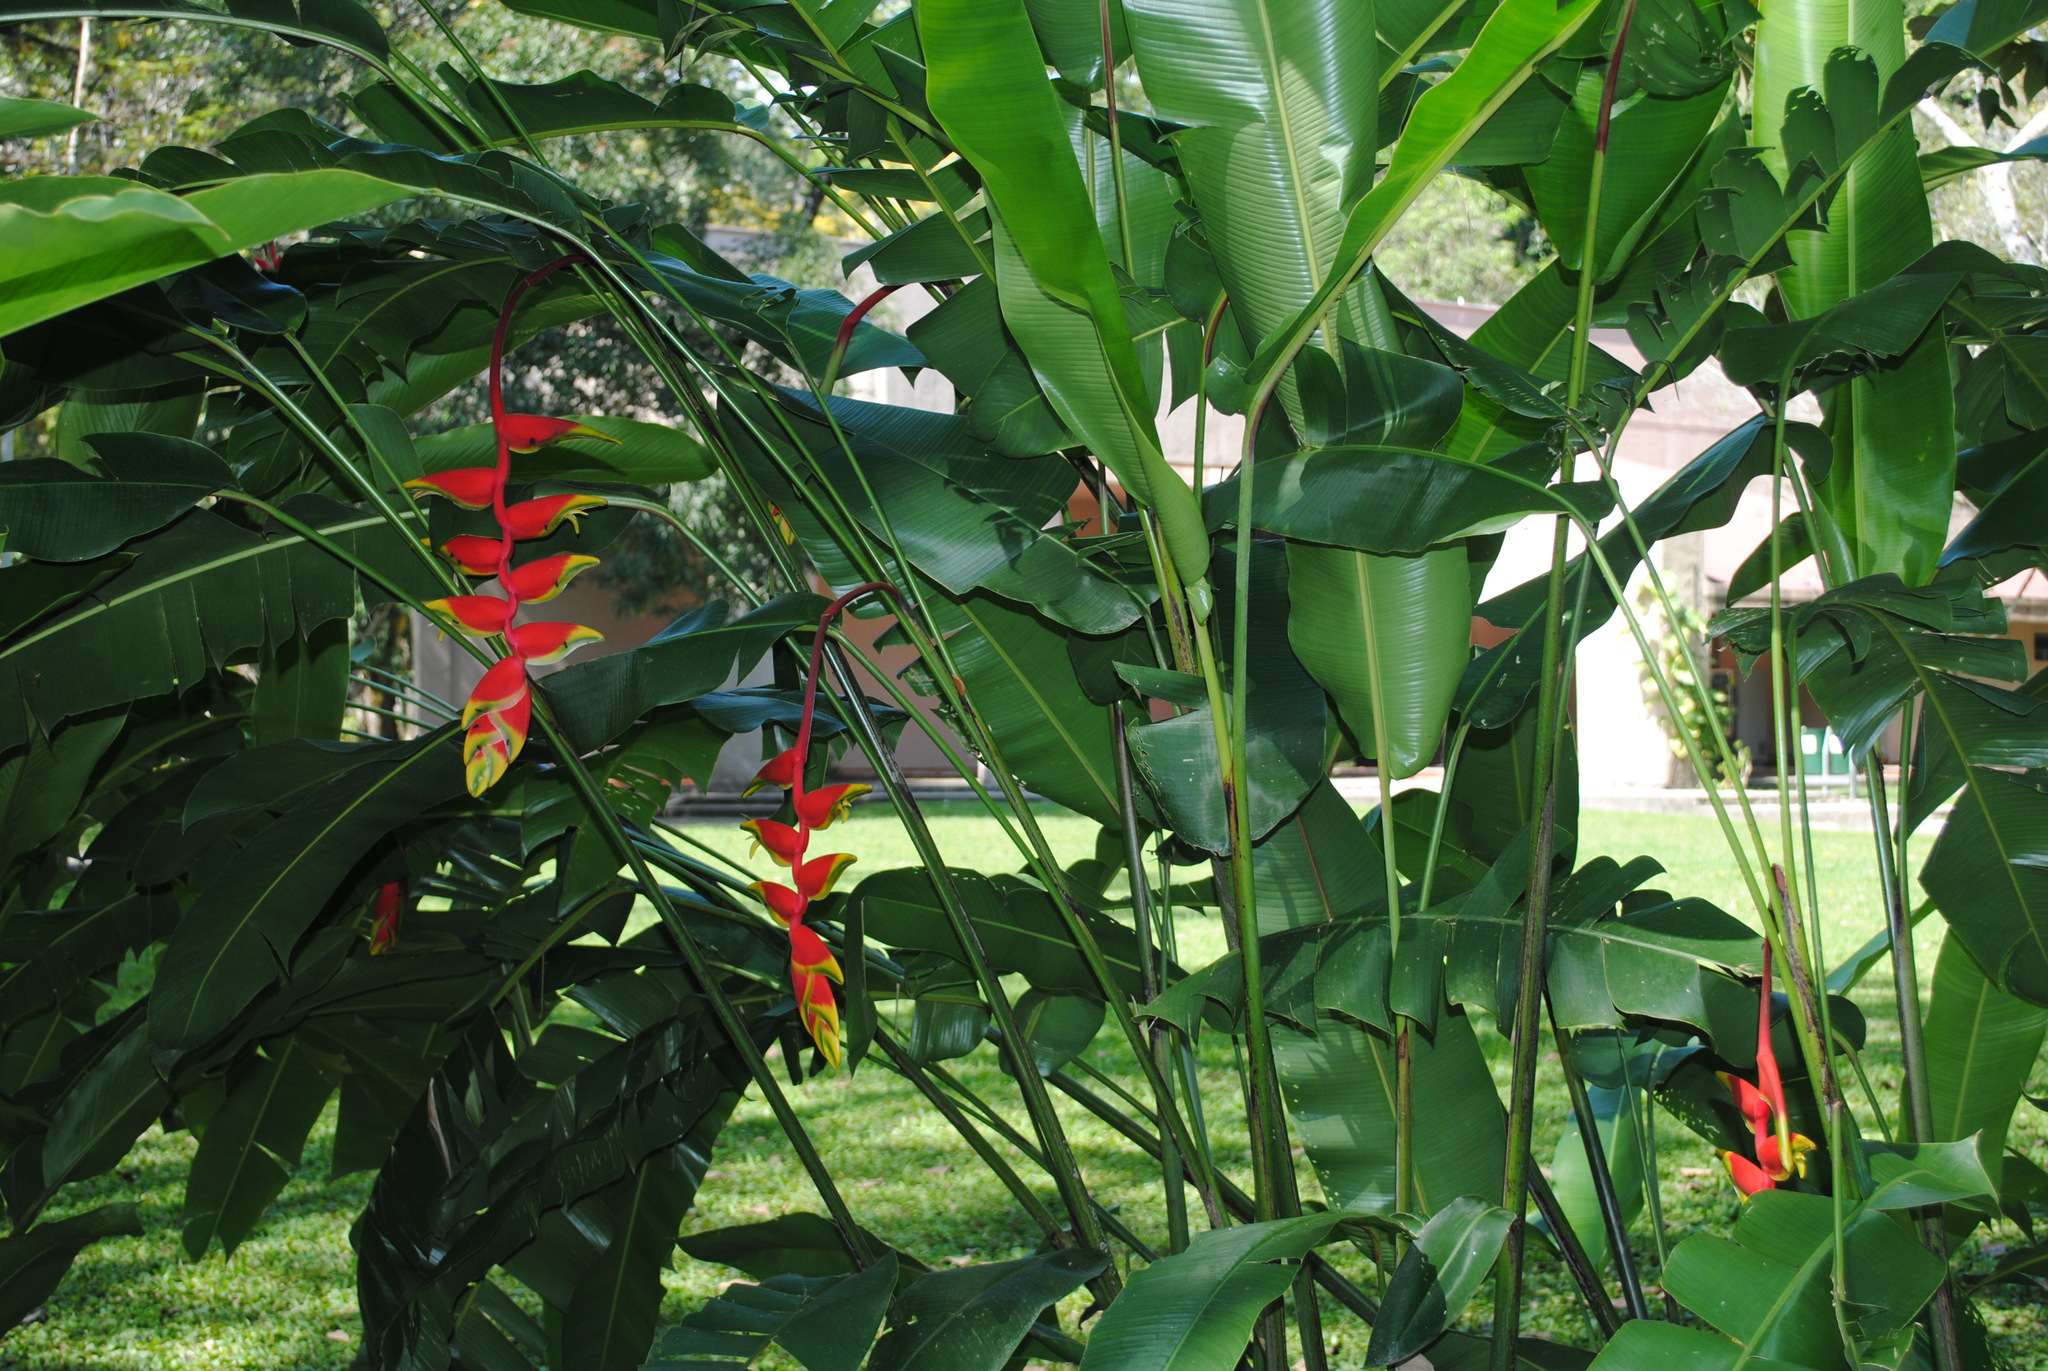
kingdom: Plantae
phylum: Tracheophyta
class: Liliopsida
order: Zingiberales
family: Heliconiaceae
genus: Heliconia
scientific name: Heliconia rostrata
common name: False bird of paradise
